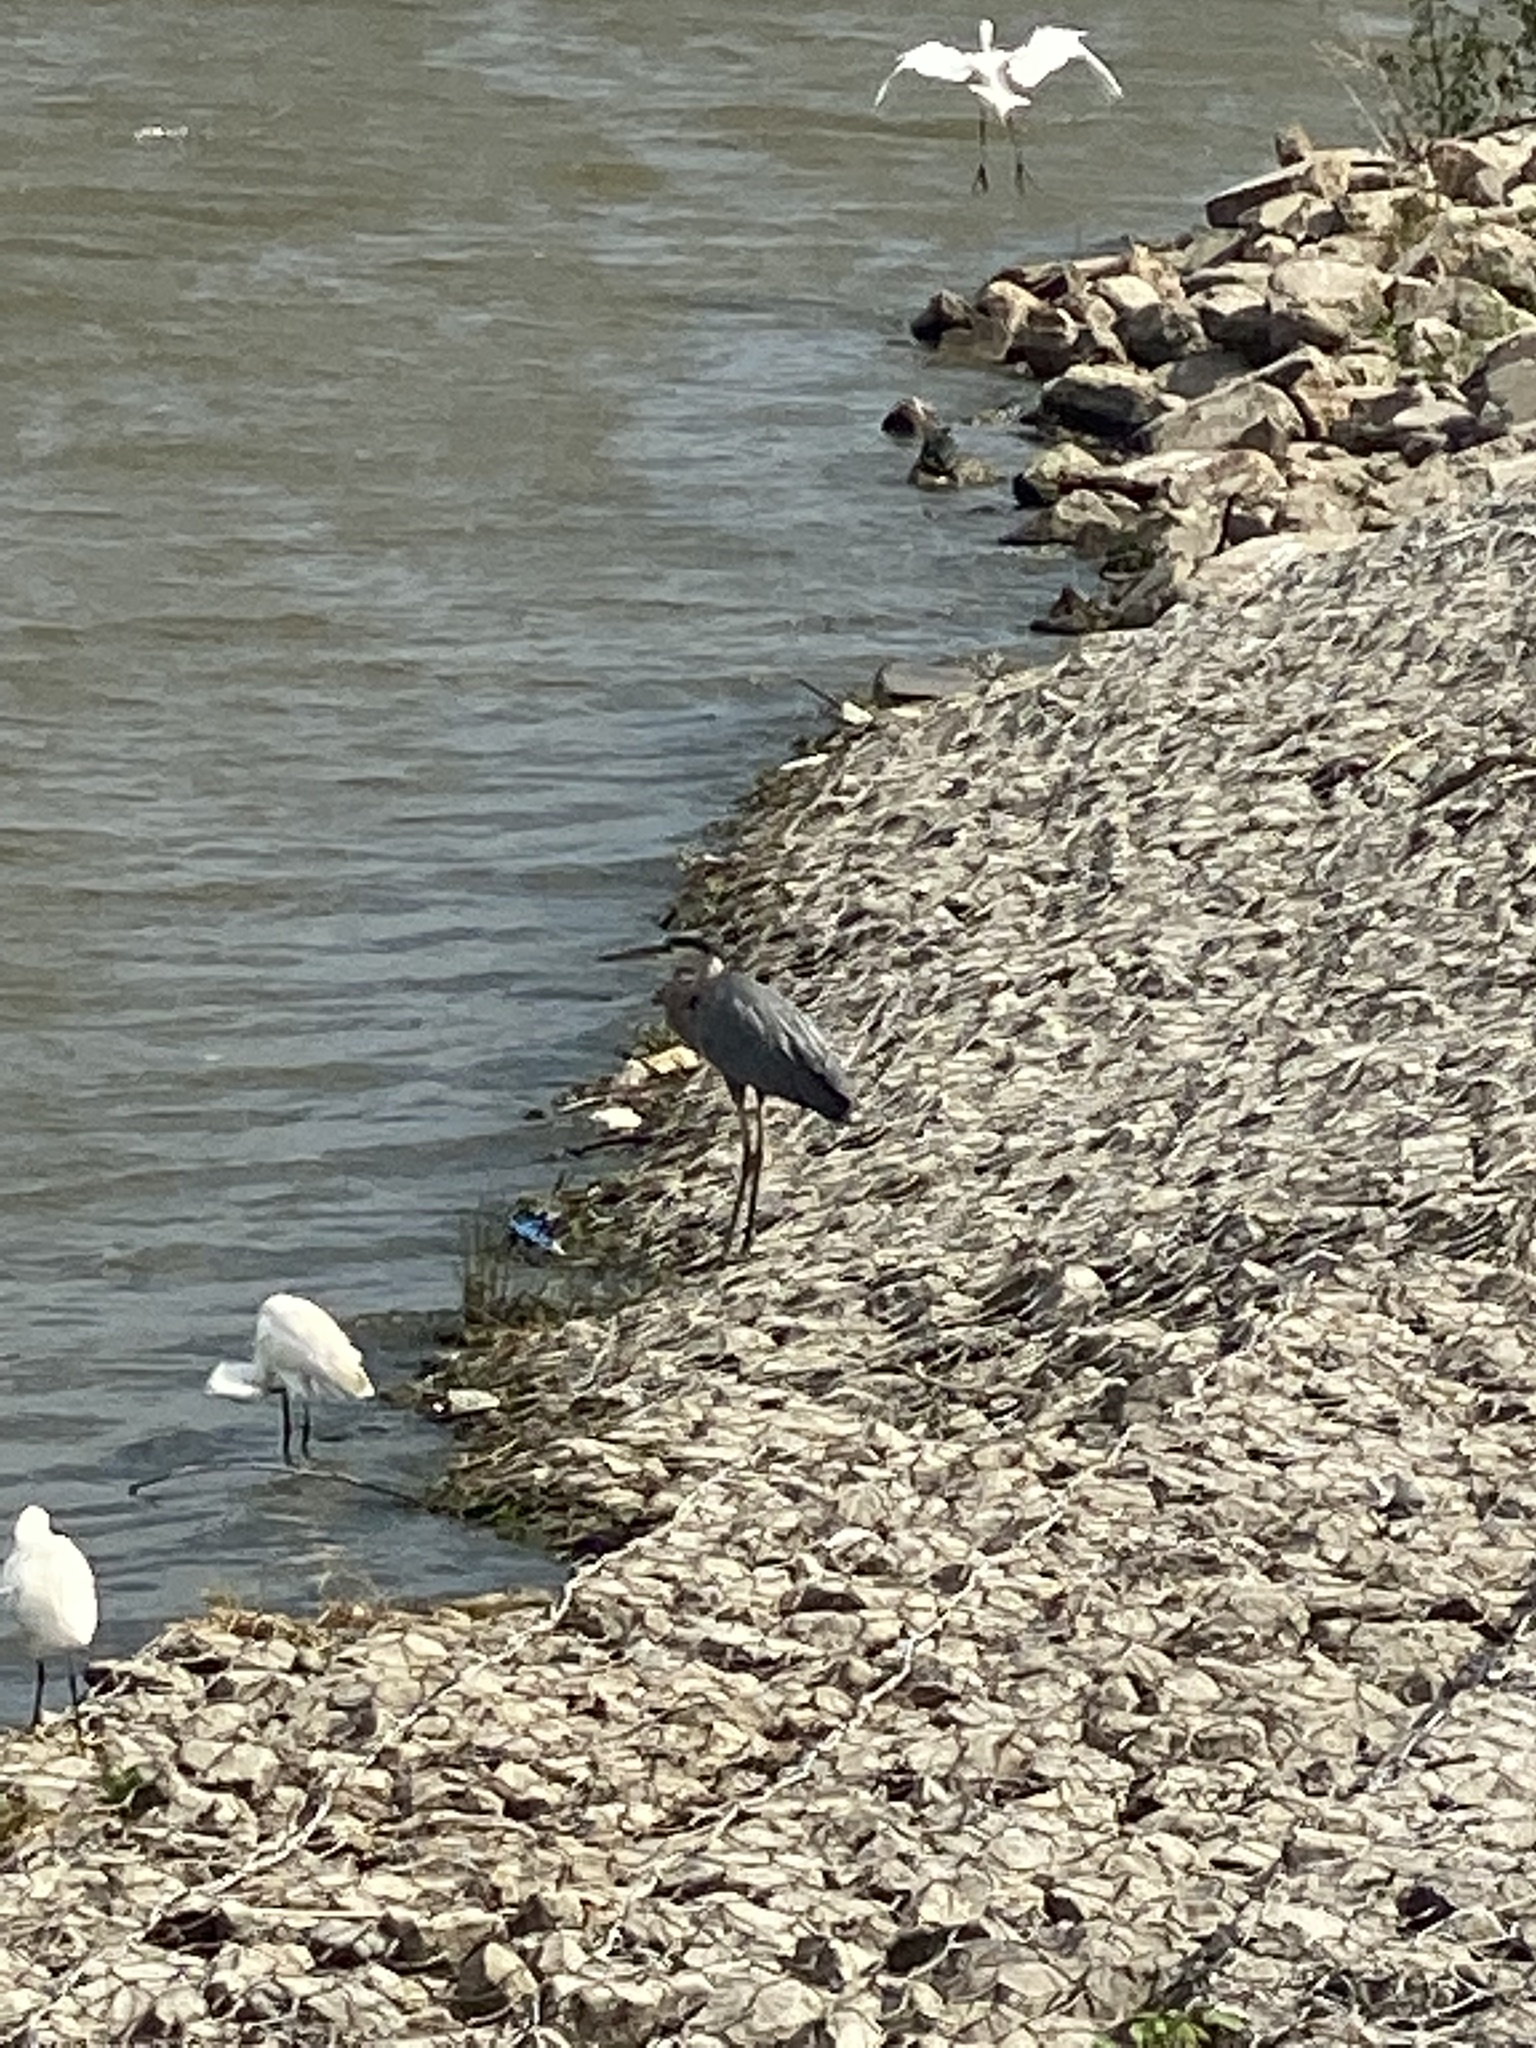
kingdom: Animalia
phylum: Chordata
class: Aves
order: Pelecaniformes
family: Ardeidae
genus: Ardea
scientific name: Ardea herodias
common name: Great blue heron
